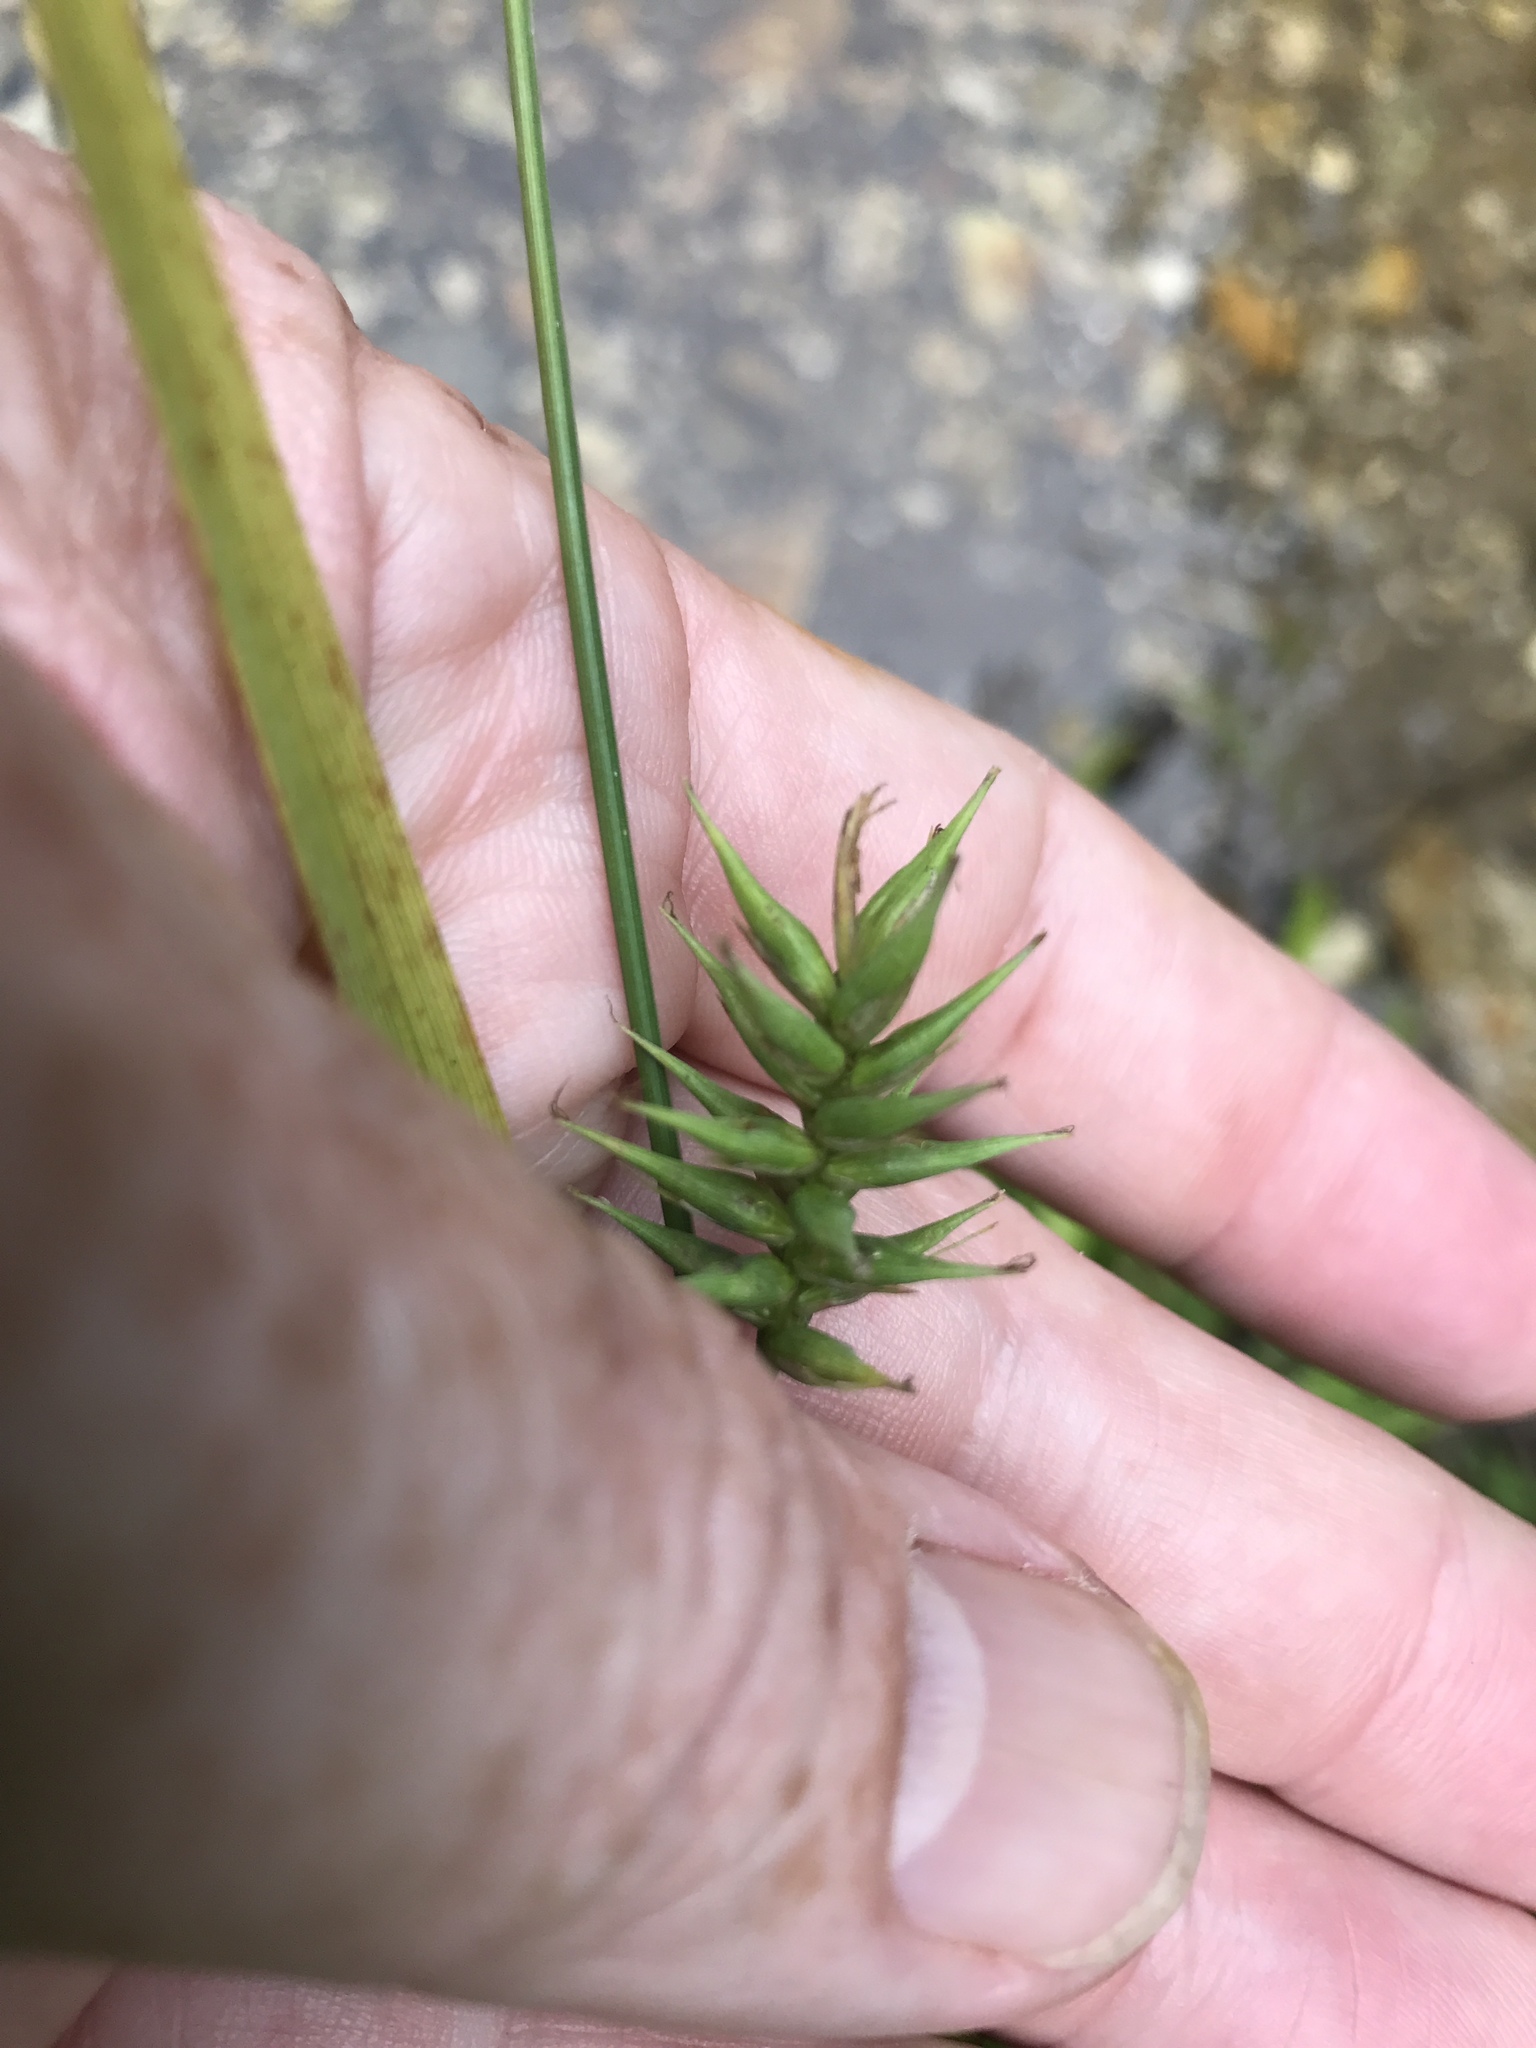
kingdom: Plantae
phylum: Tracheophyta
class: Liliopsida
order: Poales
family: Cyperaceae
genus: Carex
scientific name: Carex folliculata
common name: Northern long sedge
